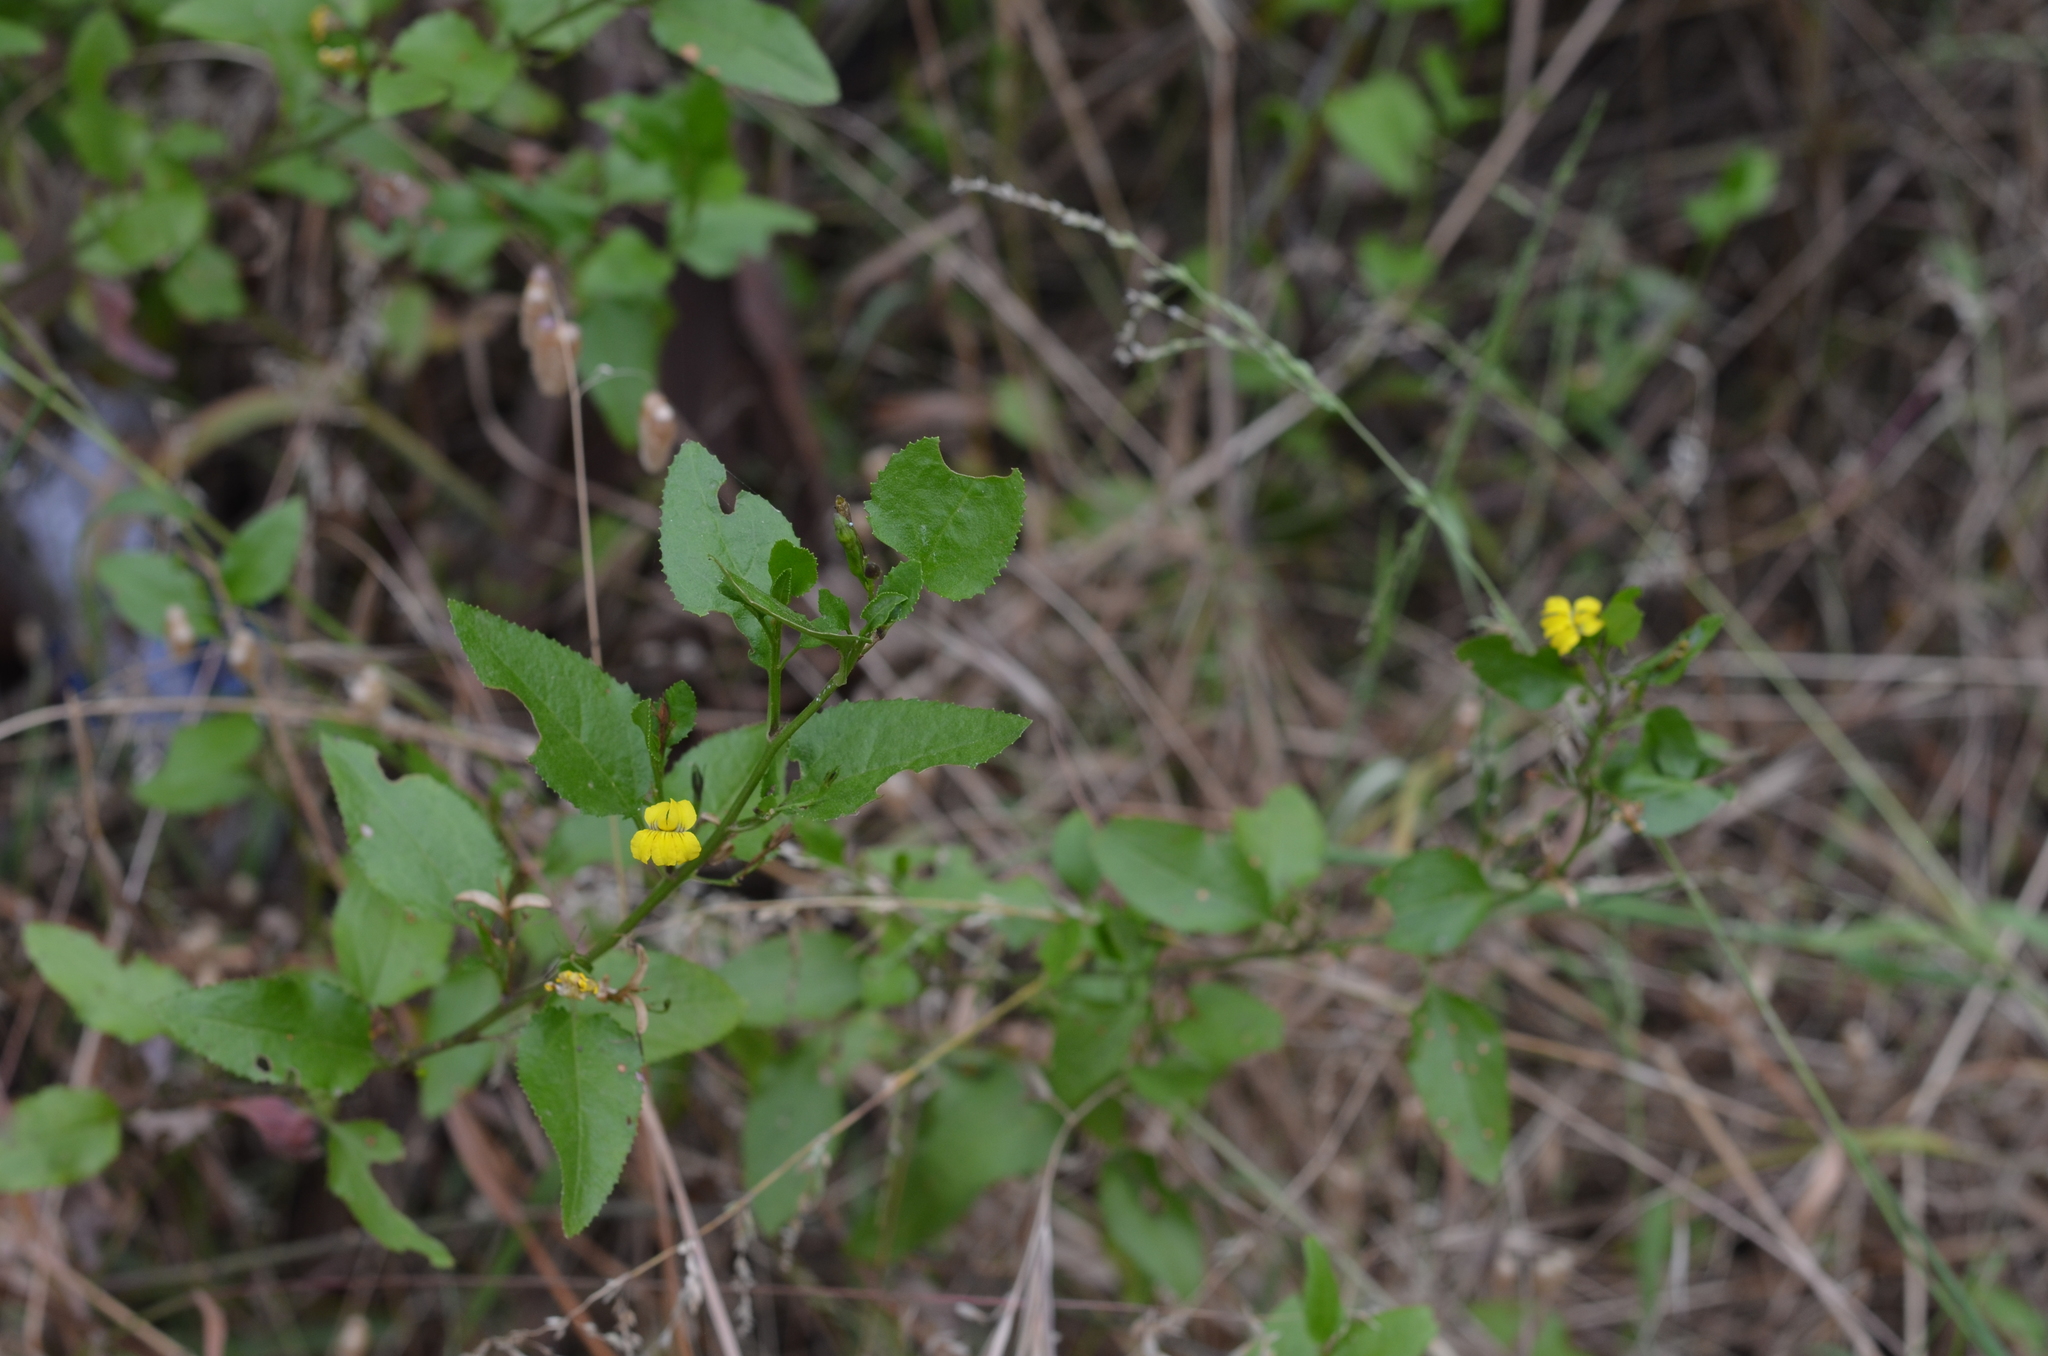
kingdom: Plantae
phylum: Tracheophyta
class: Magnoliopsida
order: Asterales
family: Goodeniaceae
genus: Goodenia
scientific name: Goodenia ovata
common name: Hop goodenia
